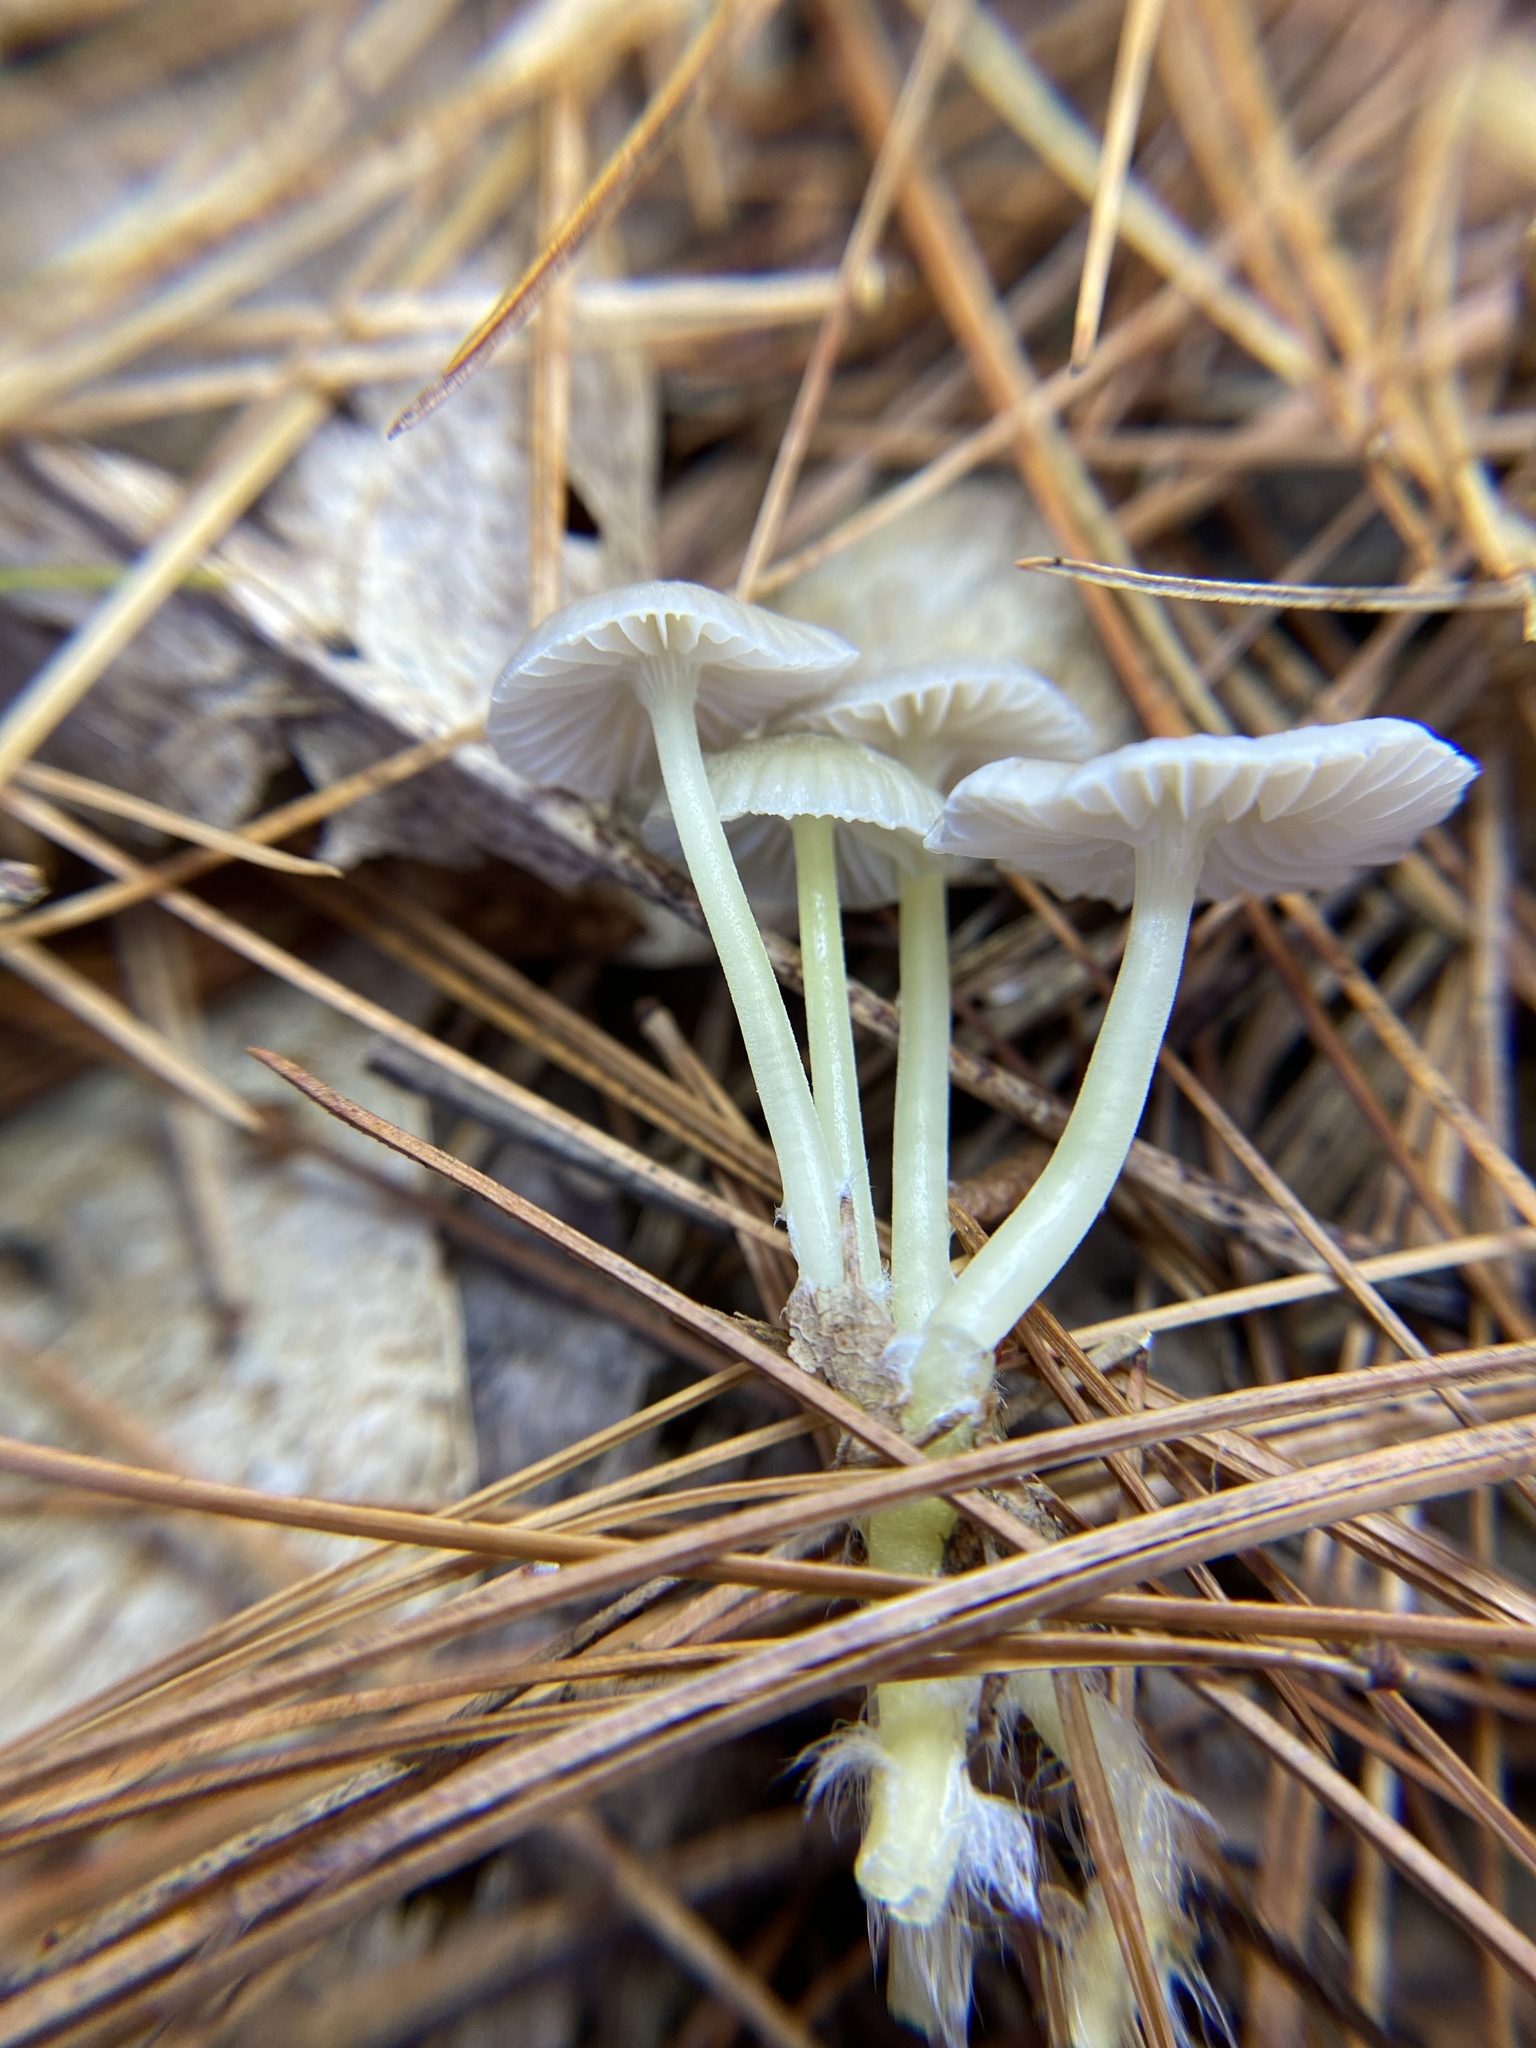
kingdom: Fungi
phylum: Basidiomycota
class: Agaricomycetes
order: Agaricales
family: Mycenaceae
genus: Mycena
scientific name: Mycena epipterygia
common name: Yellowleg bonnet
